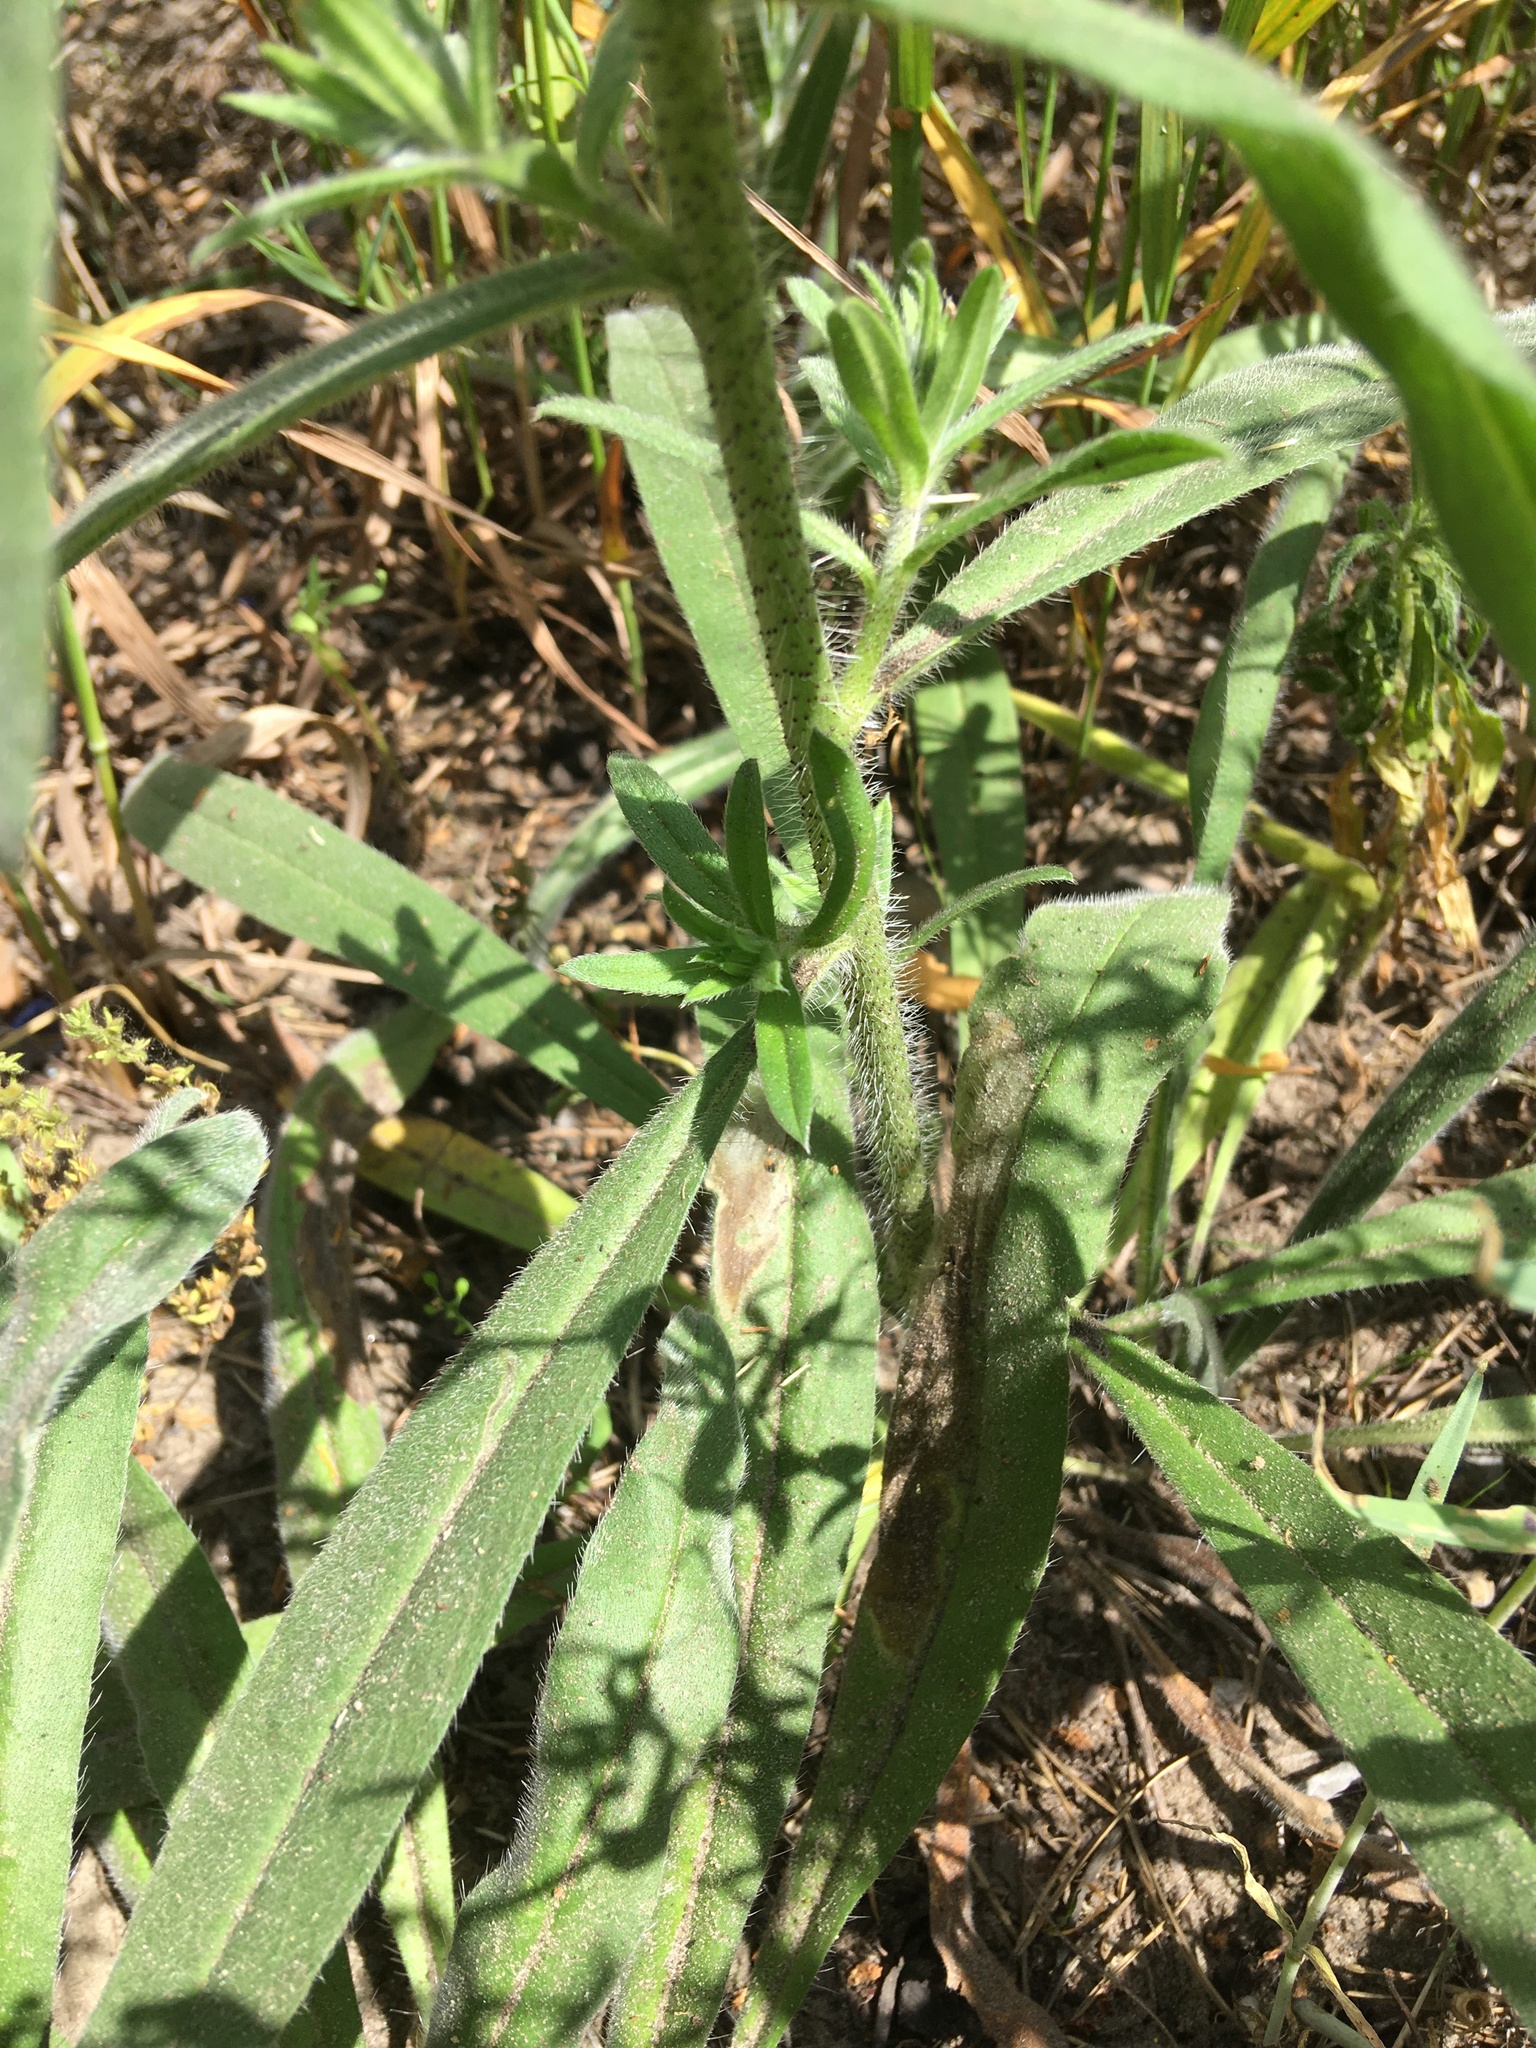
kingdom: Plantae
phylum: Tracheophyta
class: Magnoliopsida
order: Boraginales
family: Boraginaceae
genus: Echium
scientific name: Echium vulgare
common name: Common viper's bugloss
